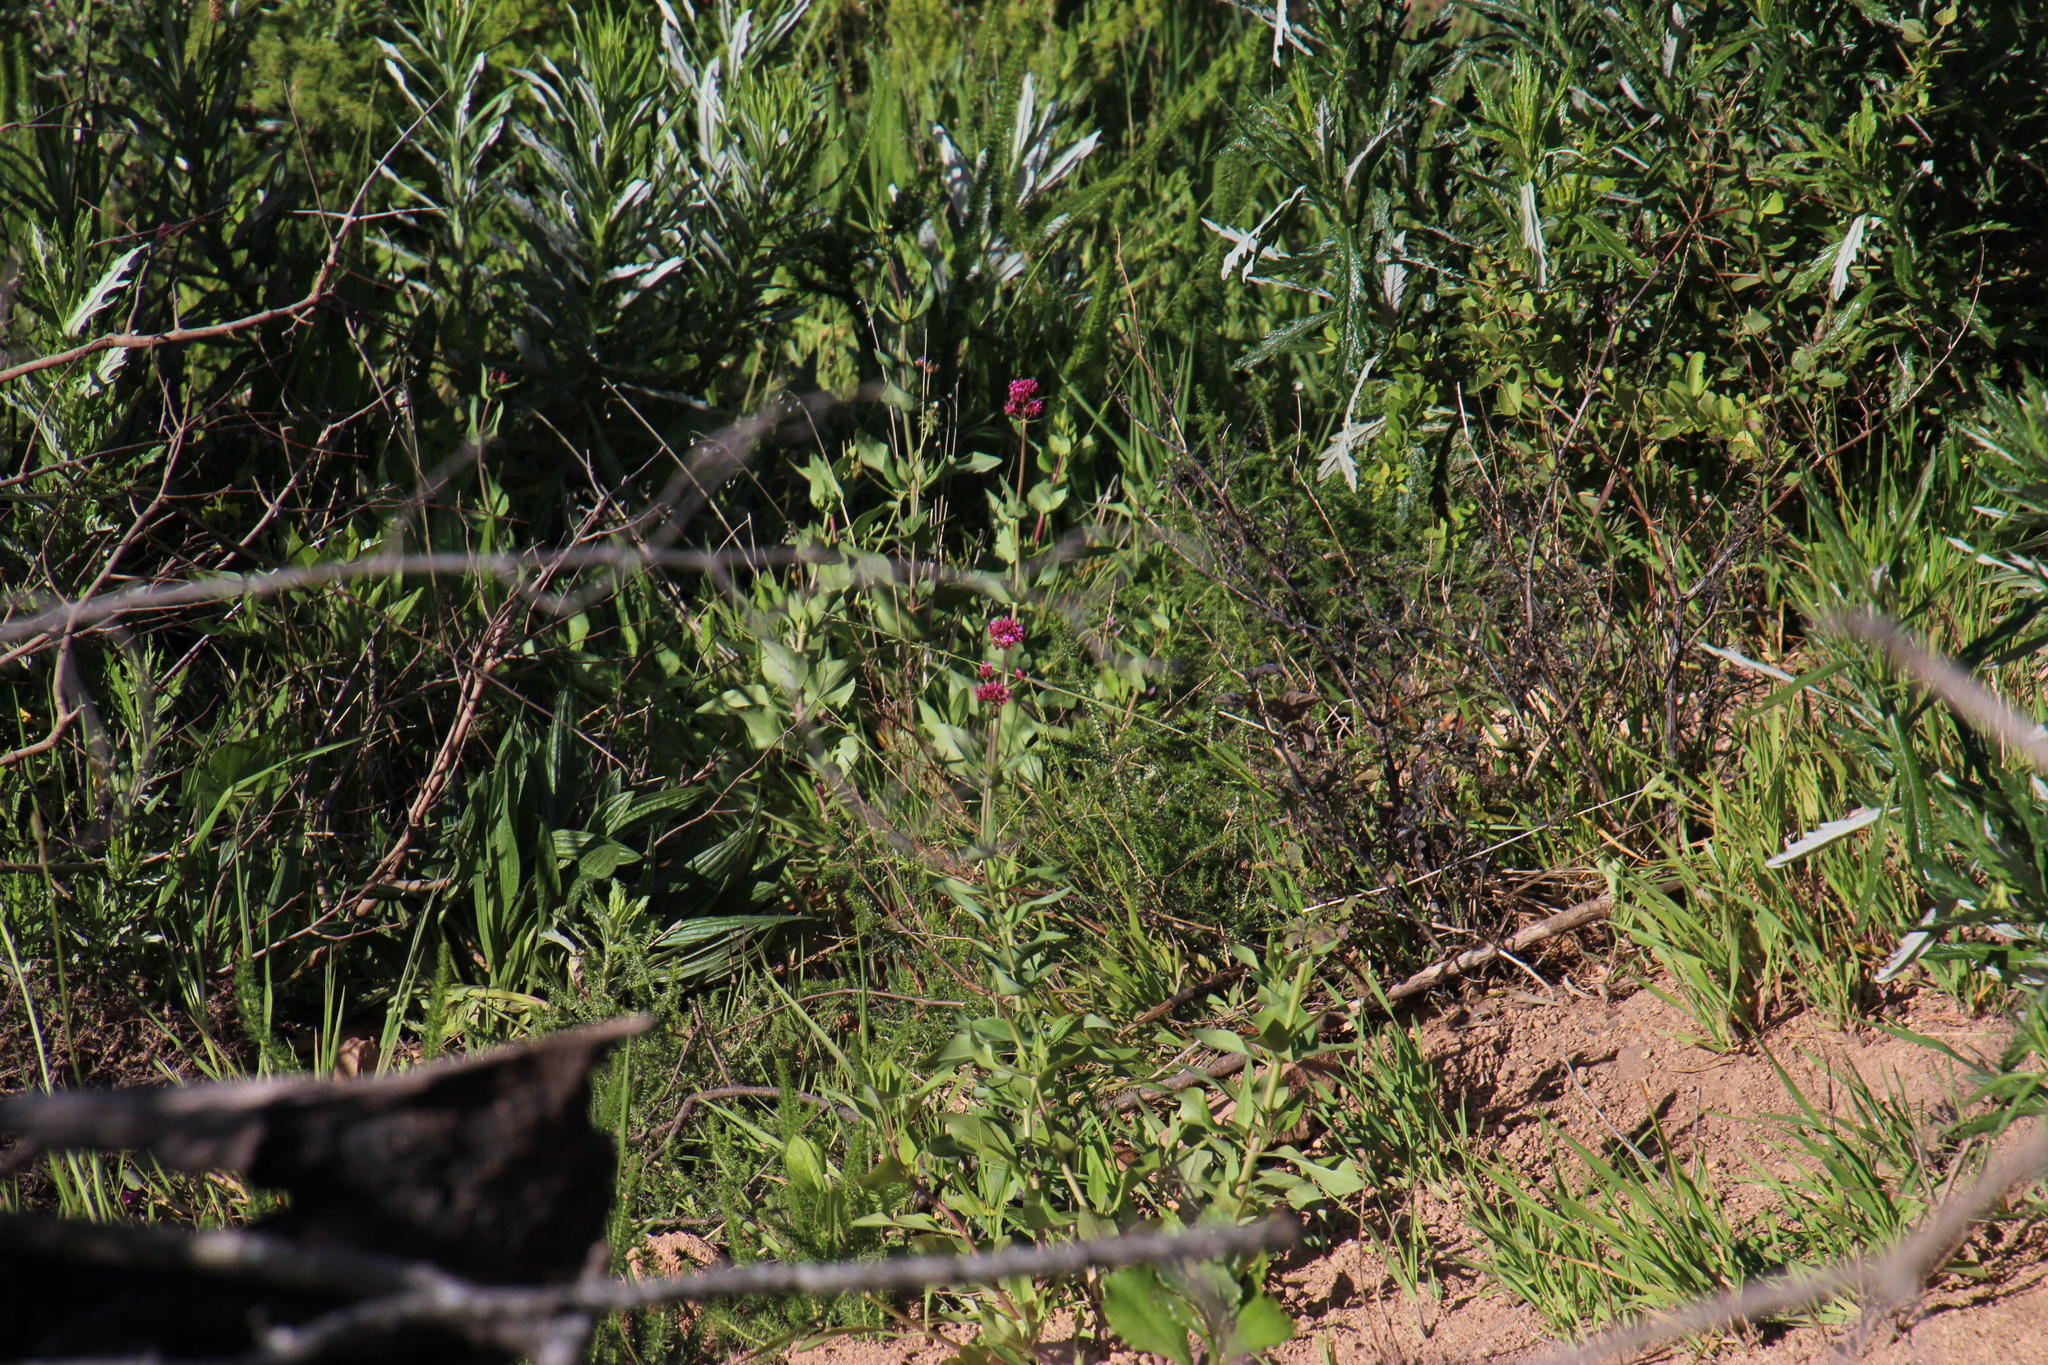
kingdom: Plantae
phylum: Tracheophyta
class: Magnoliopsida
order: Dipsacales
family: Caprifoliaceae
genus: Centranthus
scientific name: Centranthus ruber
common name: Red valerian
